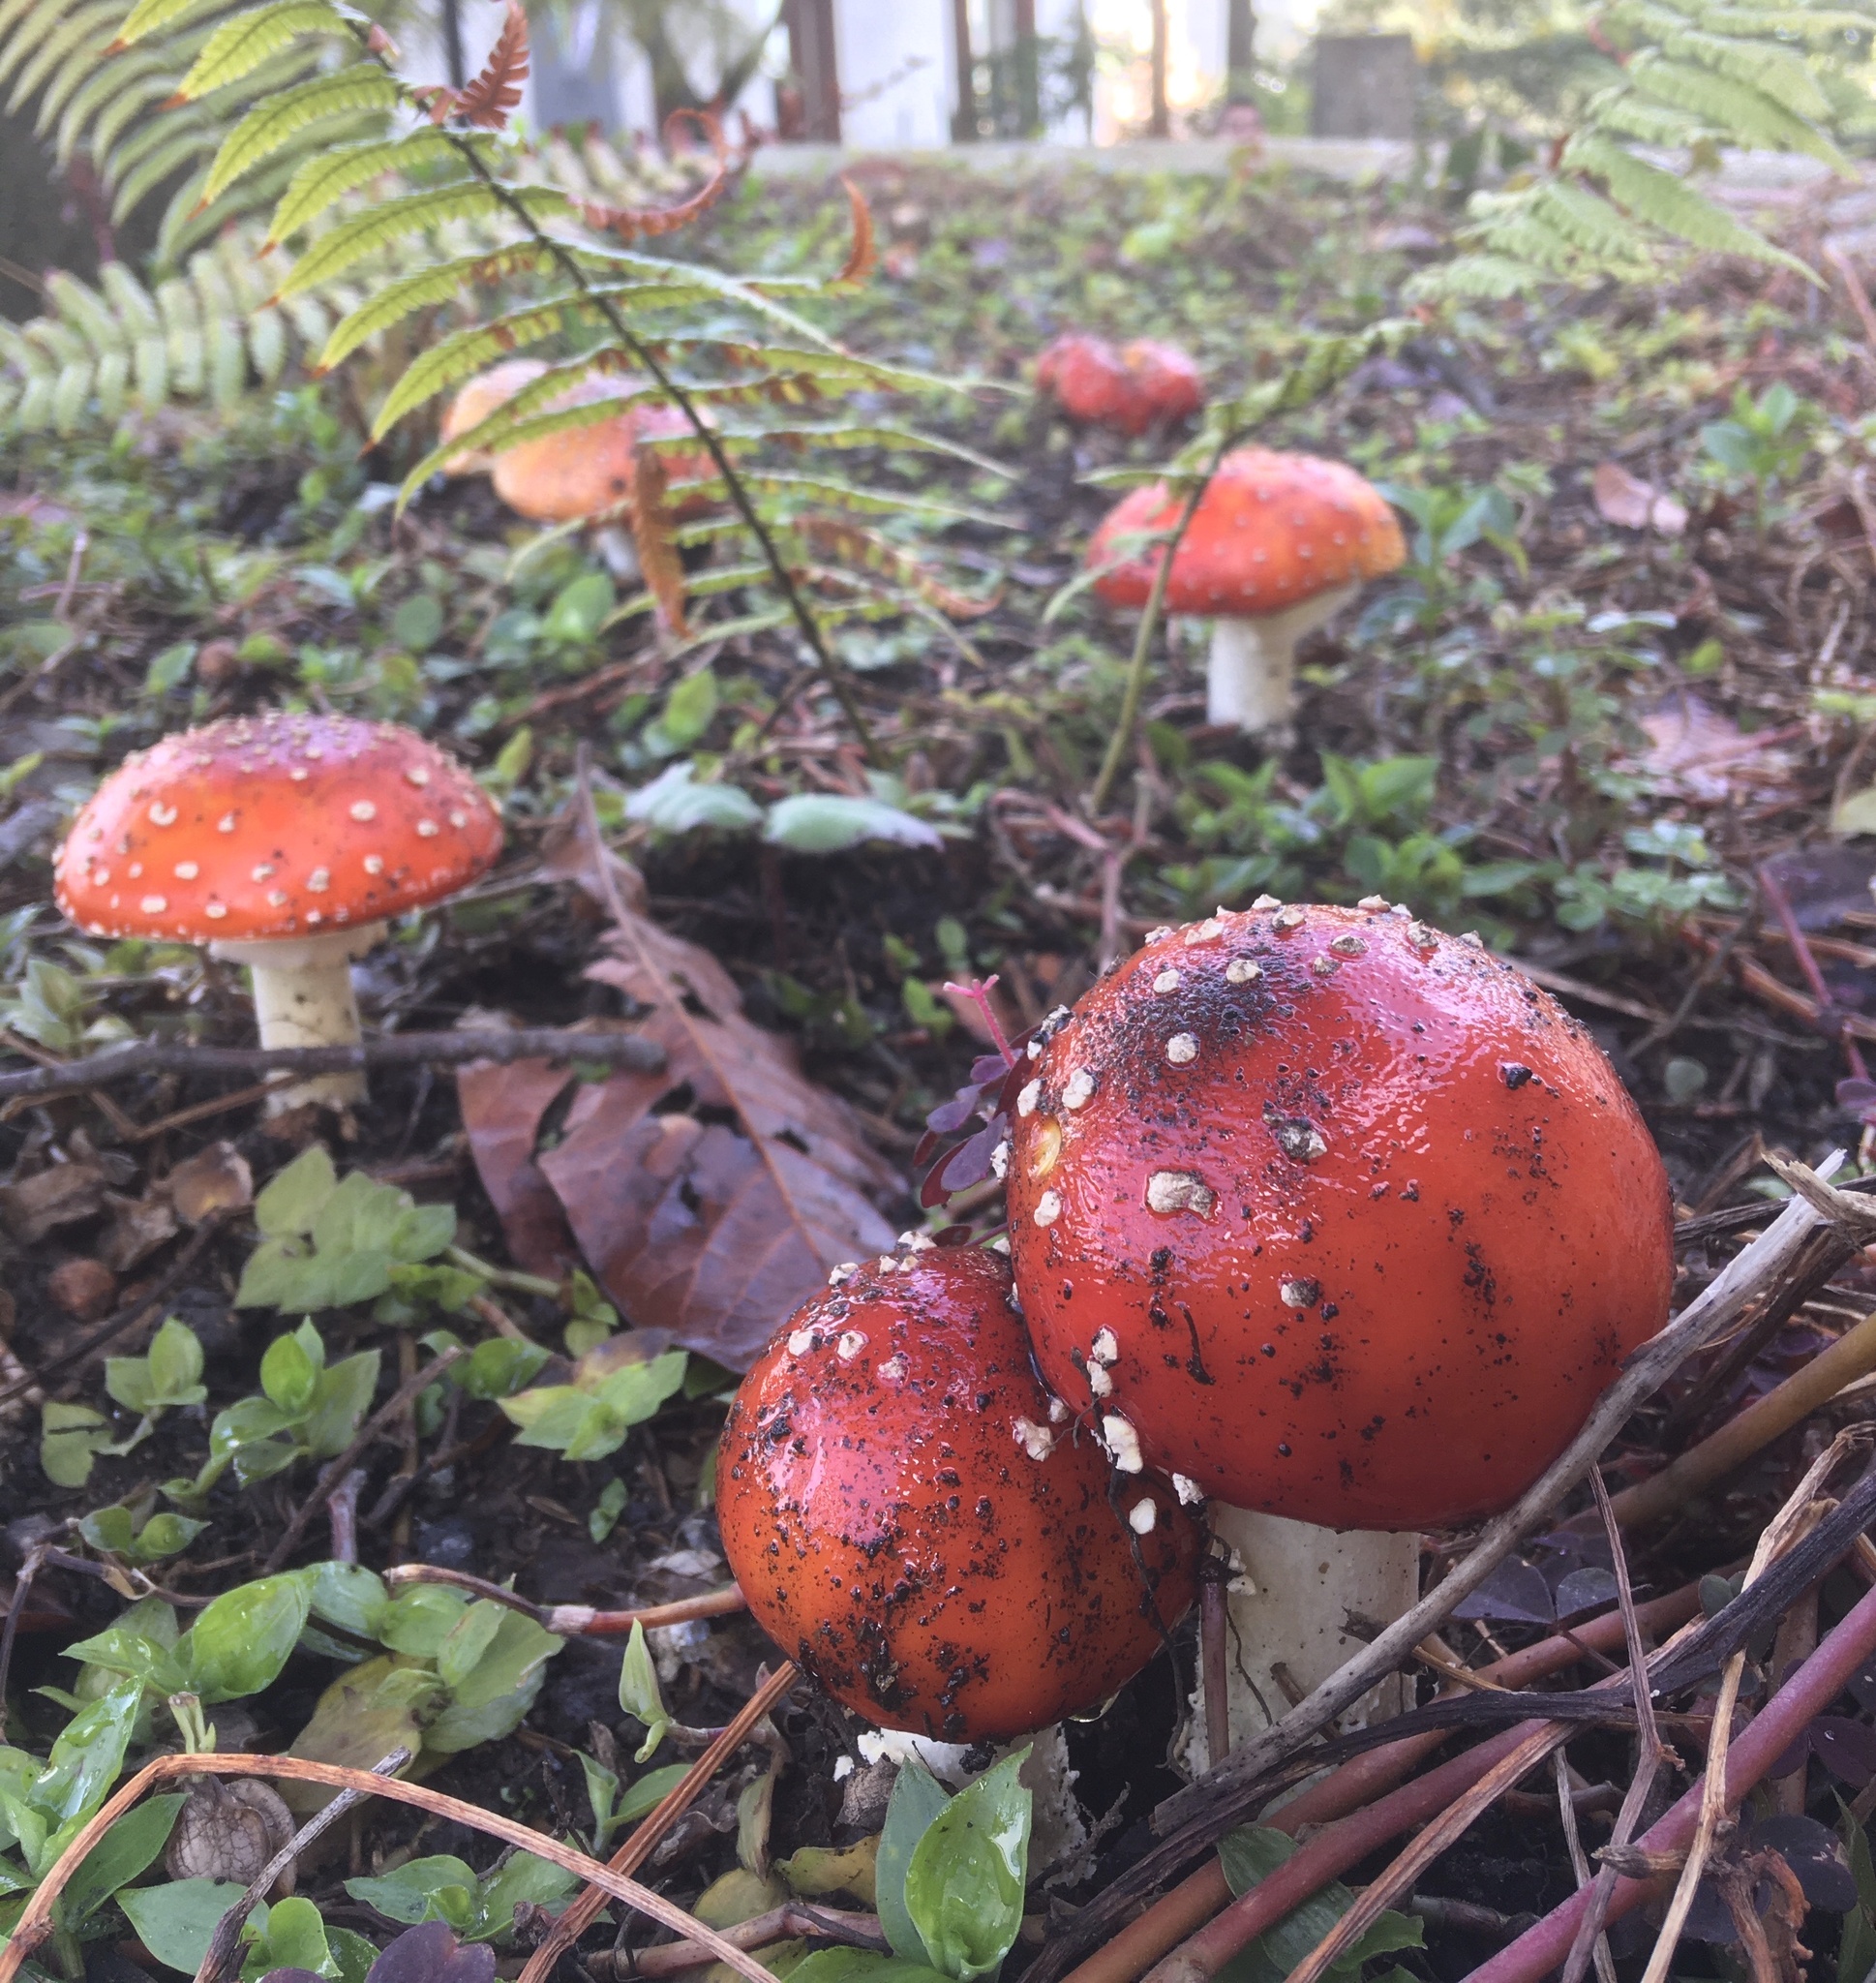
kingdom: Fungi
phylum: Basidiomycota
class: Agaricomycetes
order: Agaricales
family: Amanitaceae
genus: Amanita
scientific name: Amanita muscaria
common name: Fly agaric
